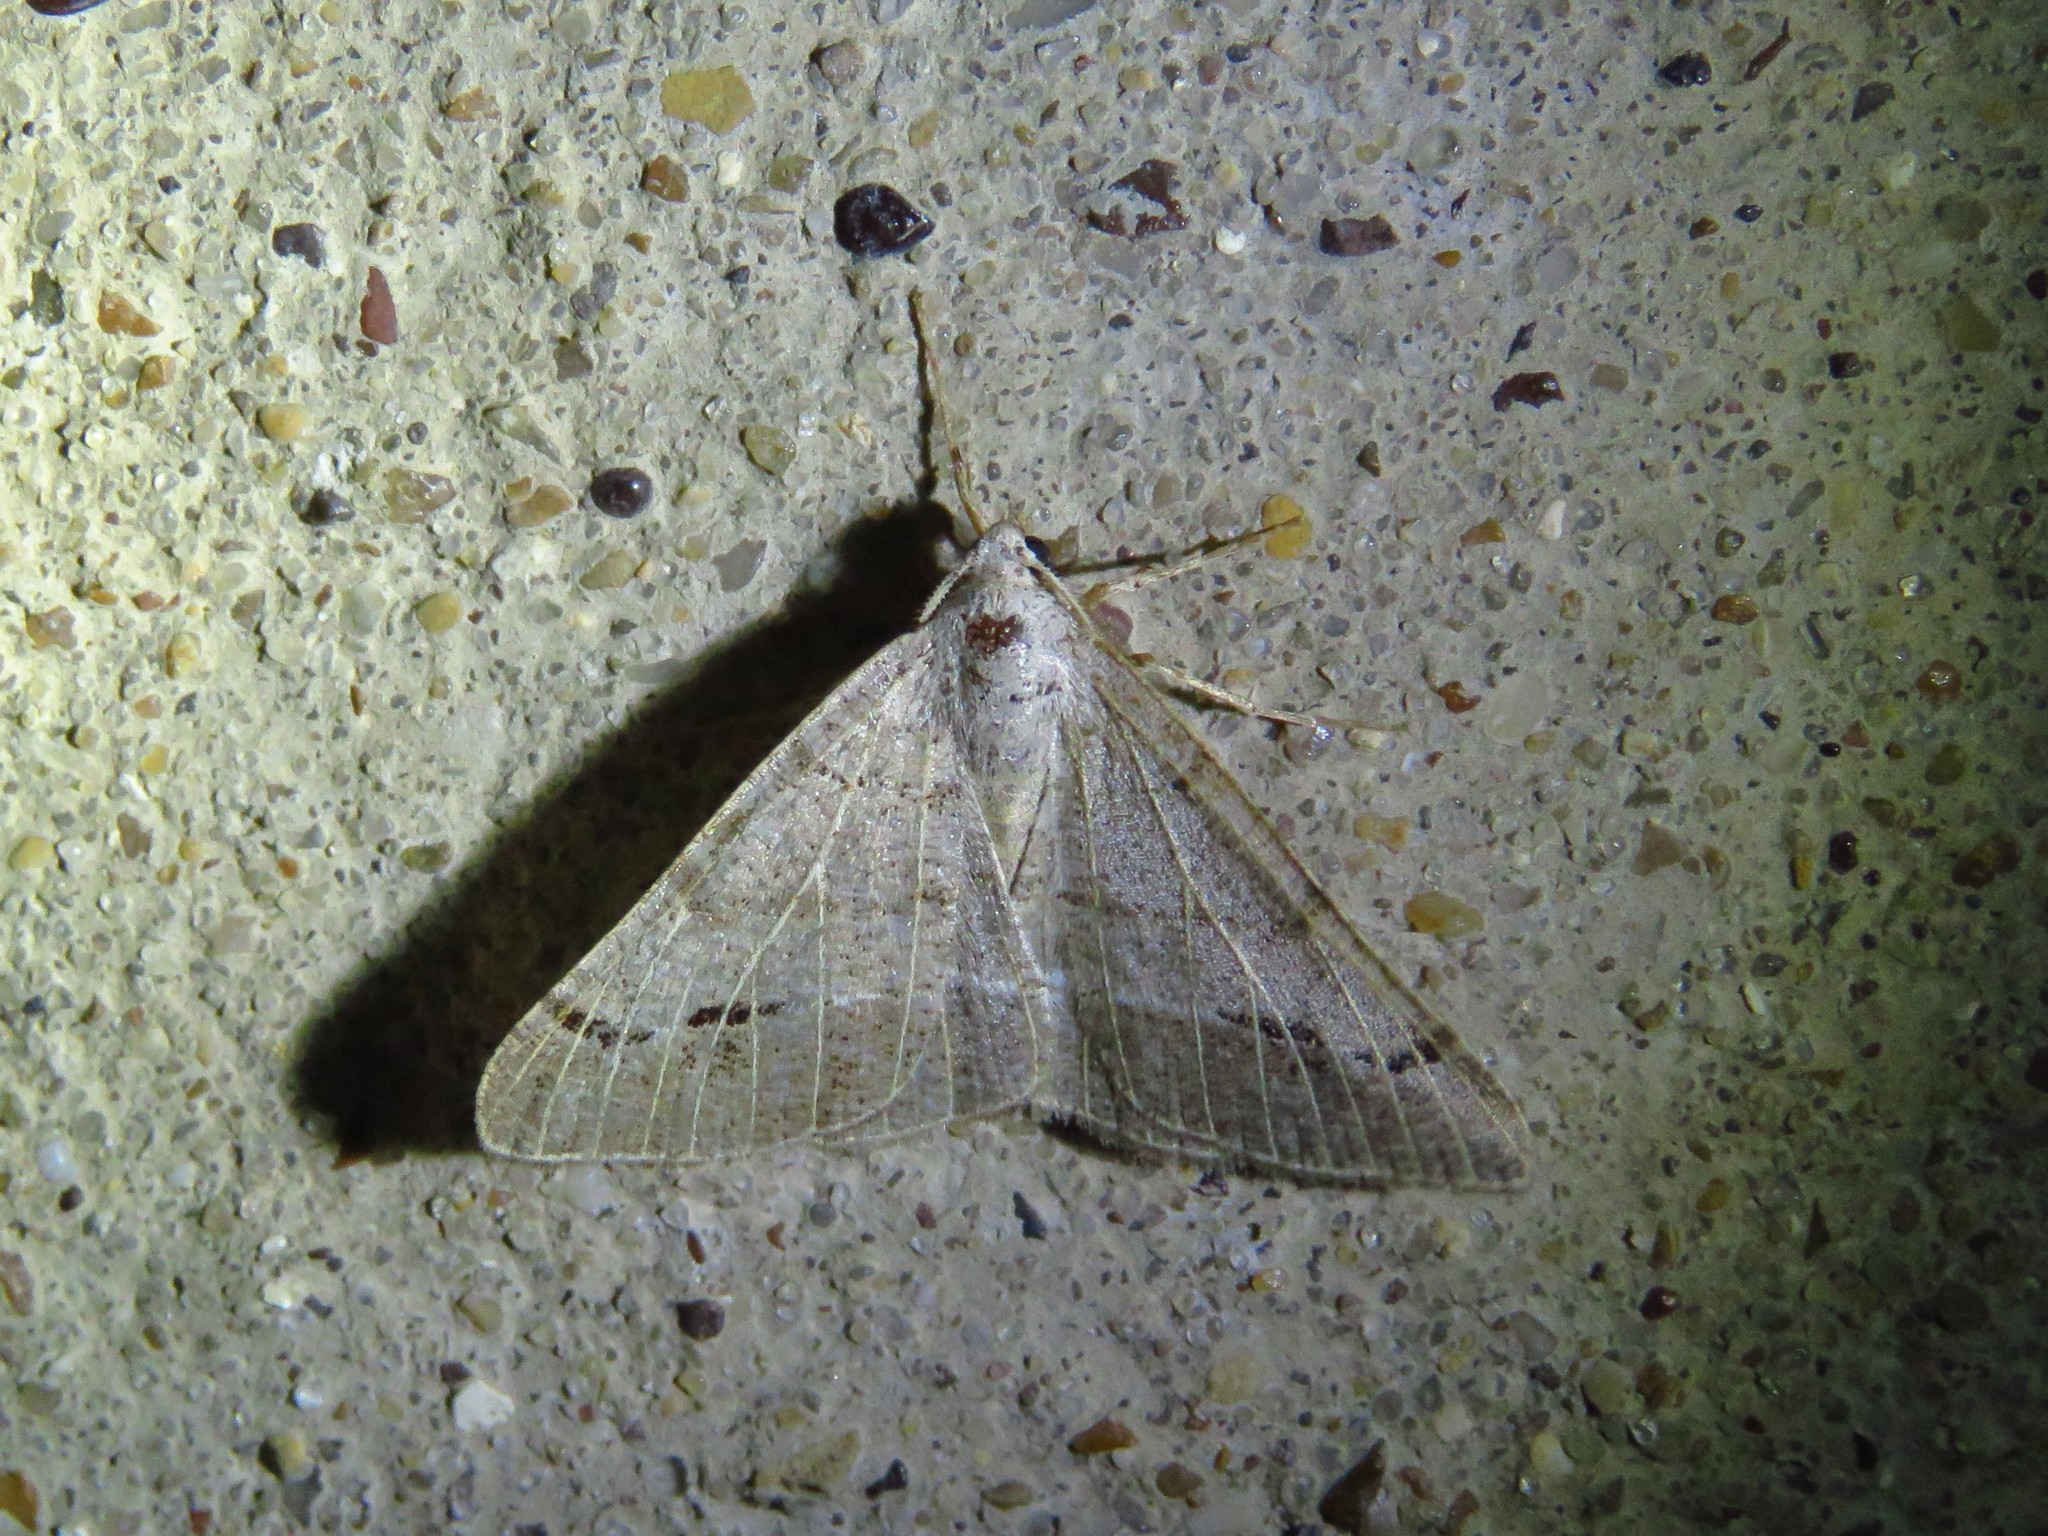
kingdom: Animalia
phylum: Arthropoda
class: Insecta
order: Lepidoptera
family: Geometridae
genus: Isturgia
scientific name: Isturgia dislocaria
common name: Pale-viened enconista
